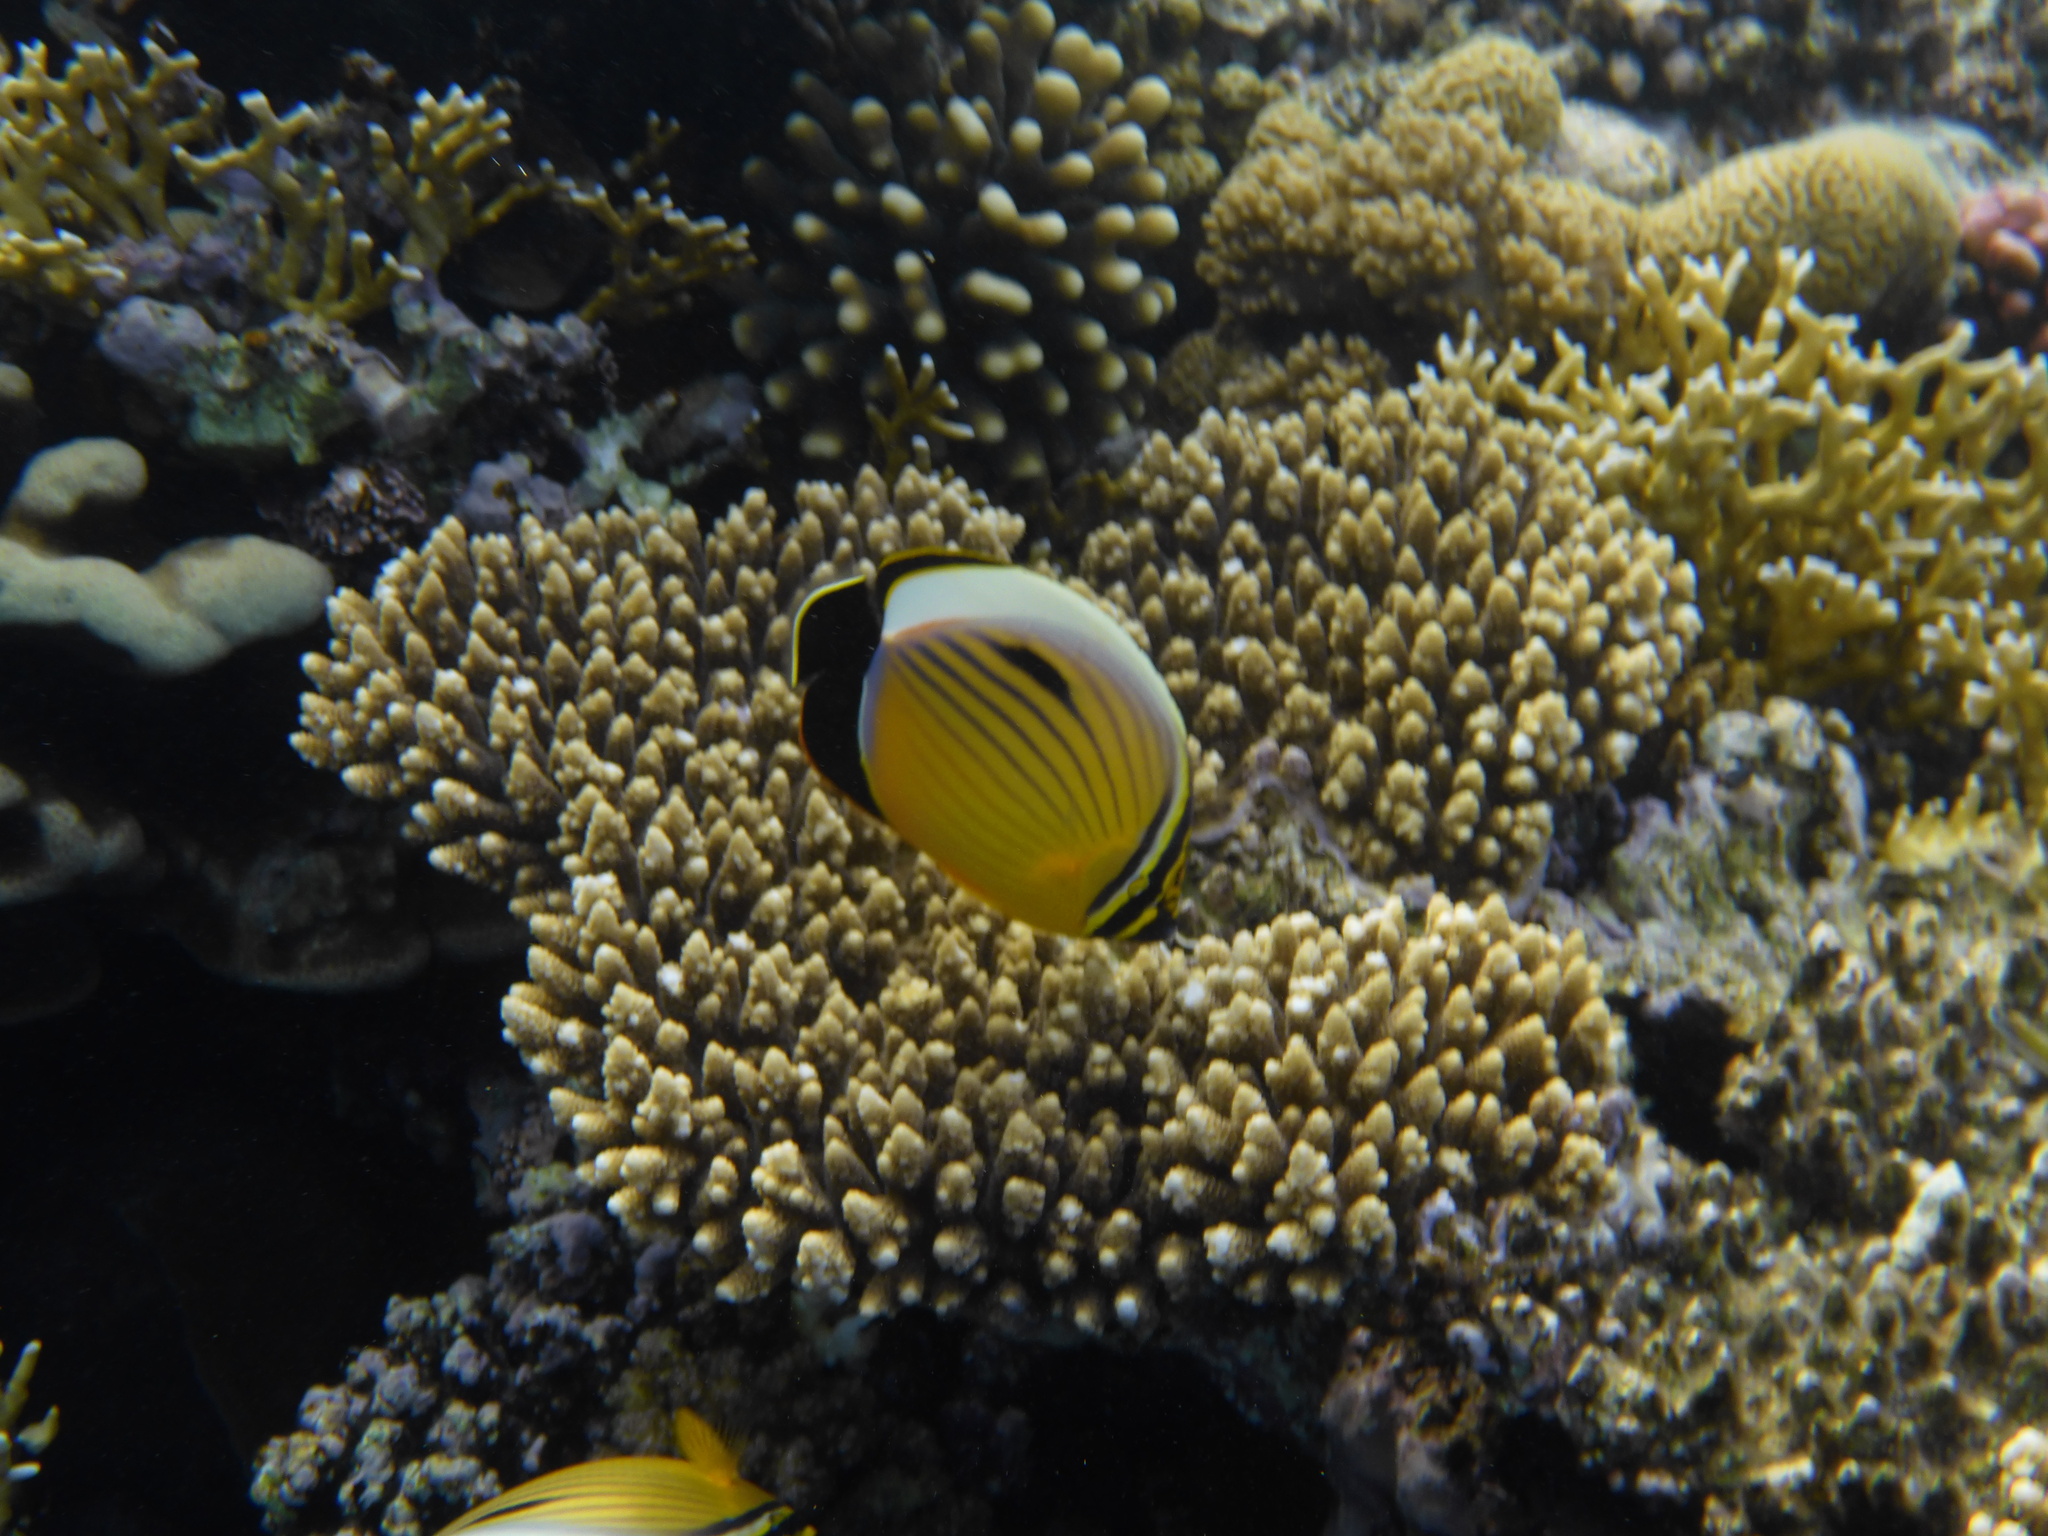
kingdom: Animalia
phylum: Chordata
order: Perciformes
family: Chaetodontidae
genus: Chaetodon
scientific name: Chaetodon austriacus
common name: Exquisite butterflyfish
